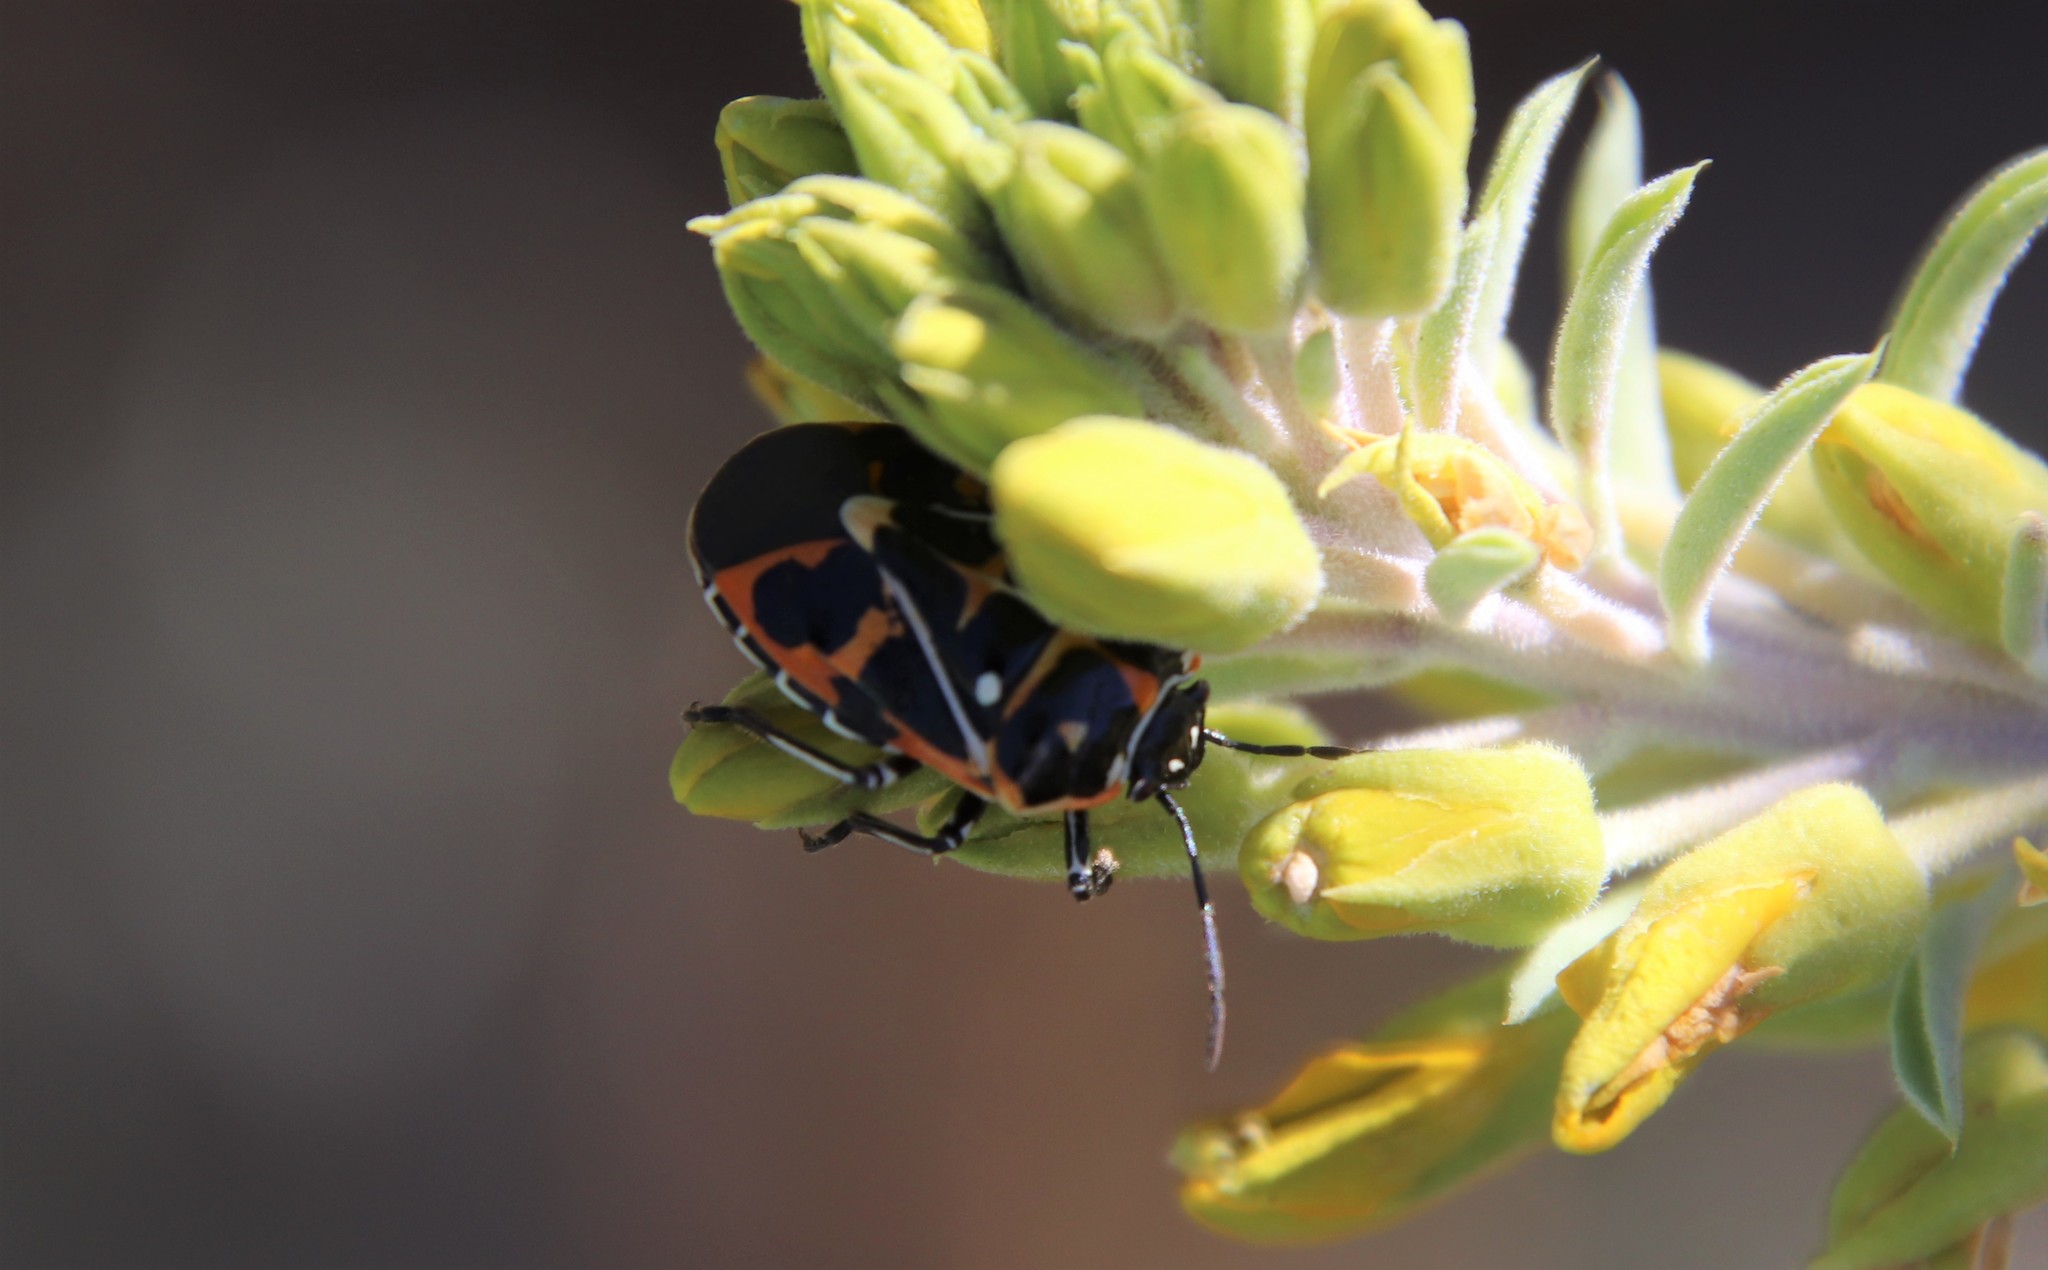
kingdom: Animalia
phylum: Arthropoda
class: Insecta
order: Hemiptera
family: Pentatomidae
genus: Murgantia
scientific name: Murgantia histrionica
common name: Harlequin bug
